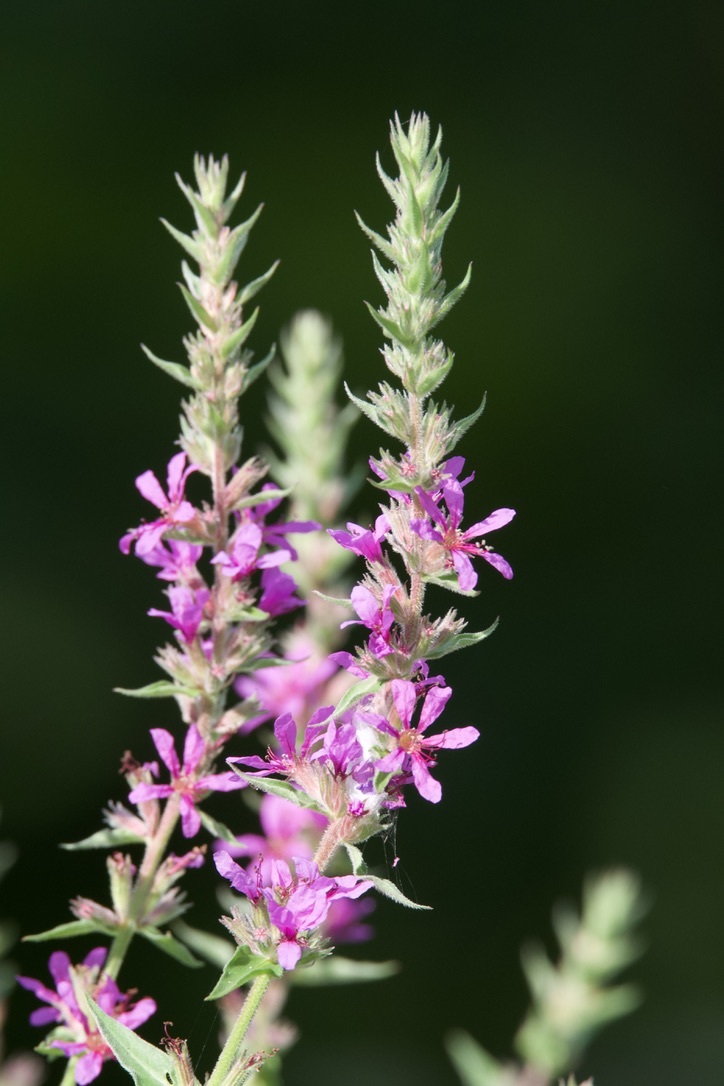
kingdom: Plantae
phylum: Tracheophyta
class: Magnoliopsida
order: Myrtales
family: Lythraceae
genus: Lythrum
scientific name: Lythrum salicaria
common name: Purple loosestrife
